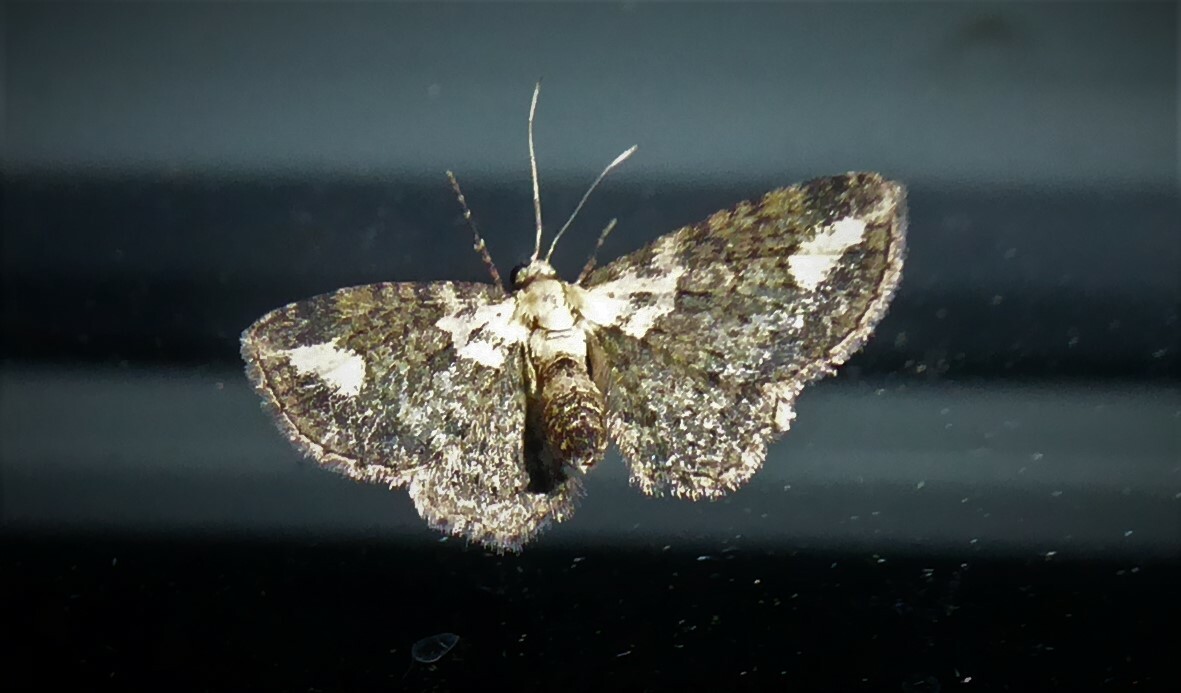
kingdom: Animalia
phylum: Arthropoda
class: Insecta
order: Lepidoptera
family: Geometridae
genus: Pasiphilodes
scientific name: Pasiphilodes testulata
